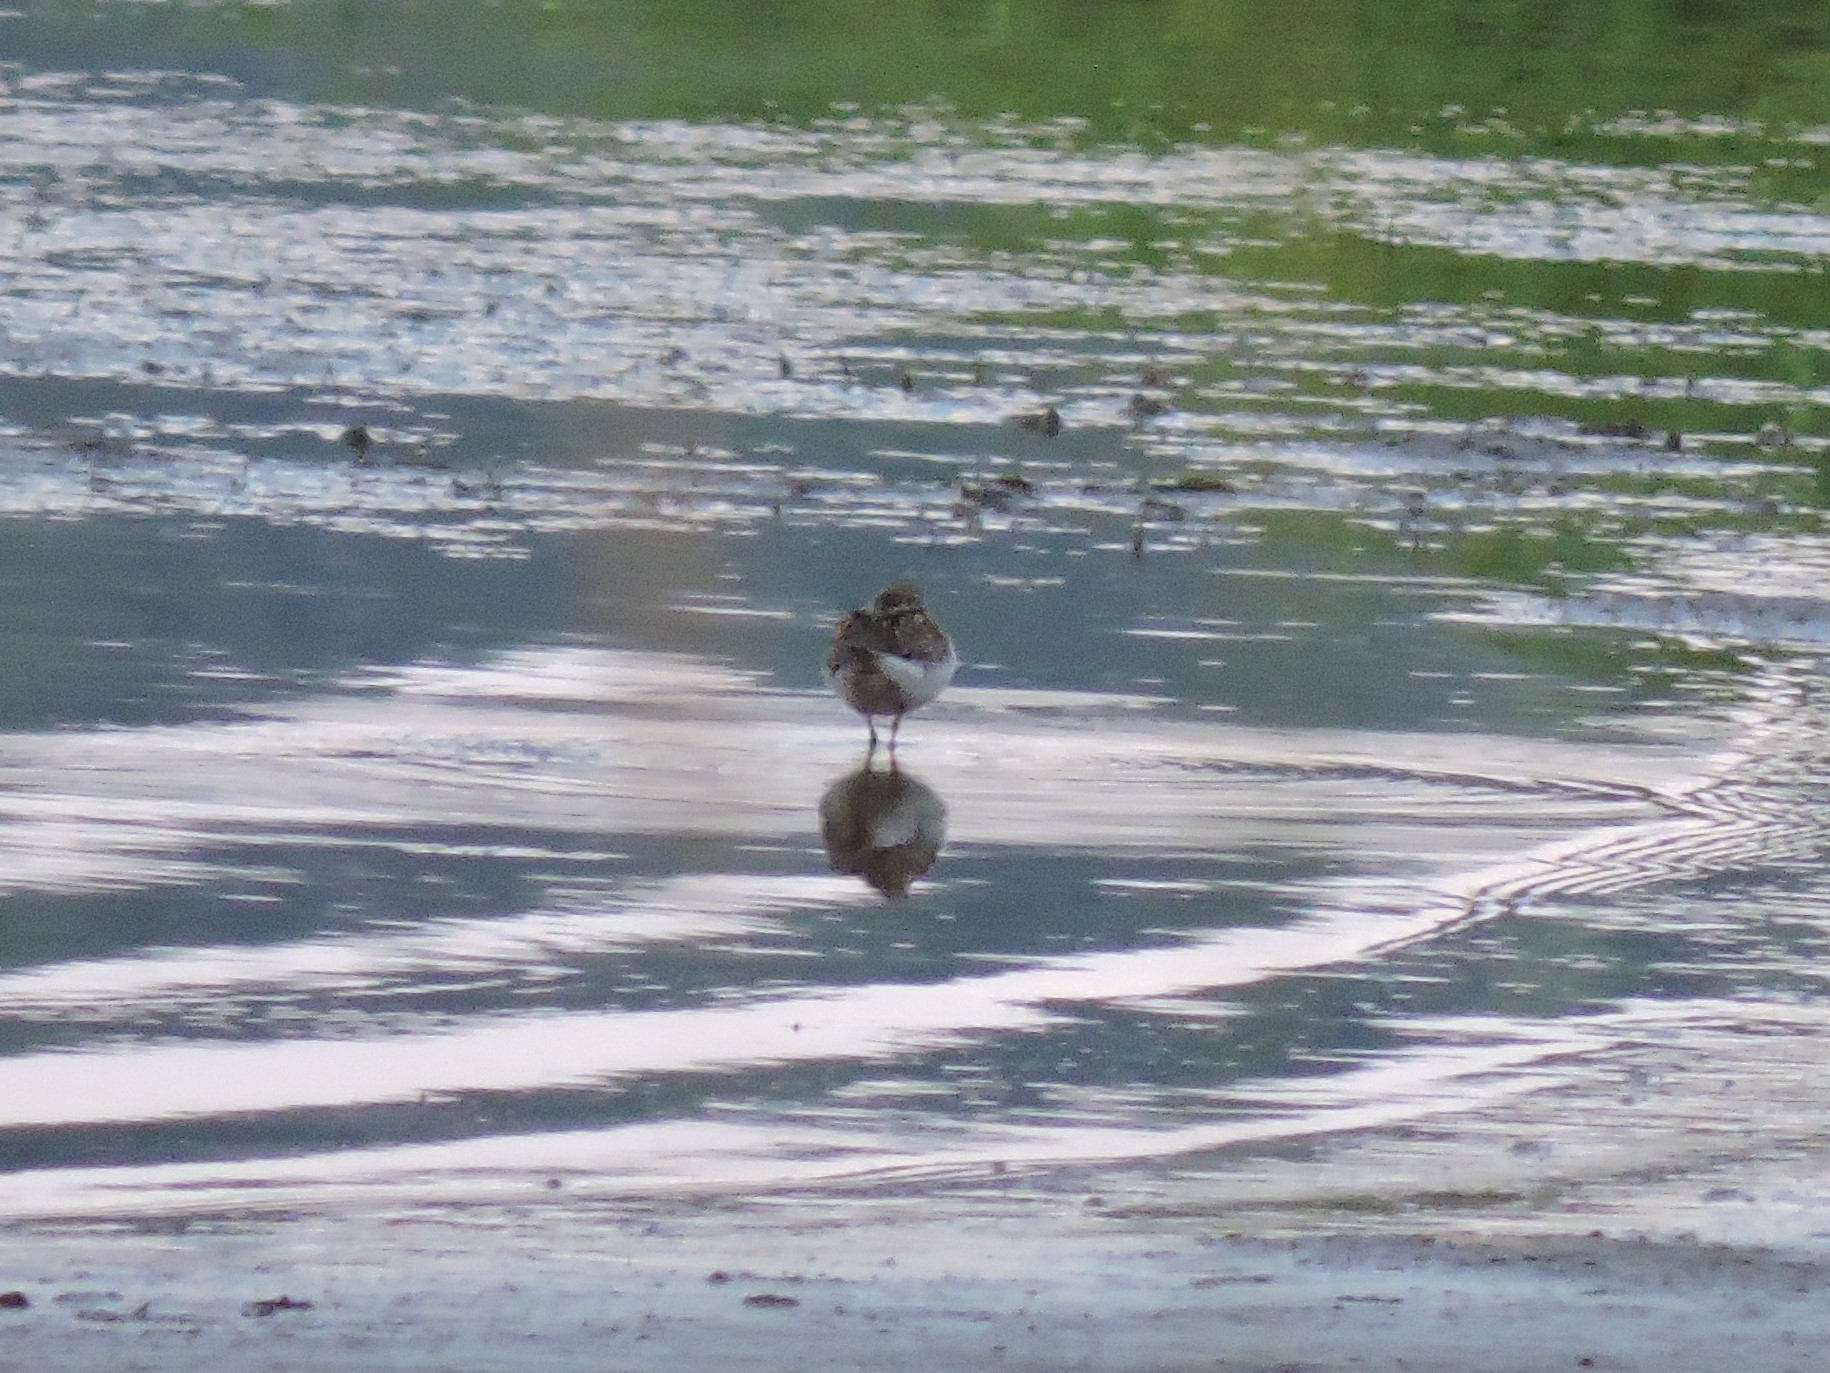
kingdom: Animalia
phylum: Chordata
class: Aves
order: Charadriiformes
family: Scolopacidae
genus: Calidris
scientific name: Calidris temminckii
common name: Temminck's stint
